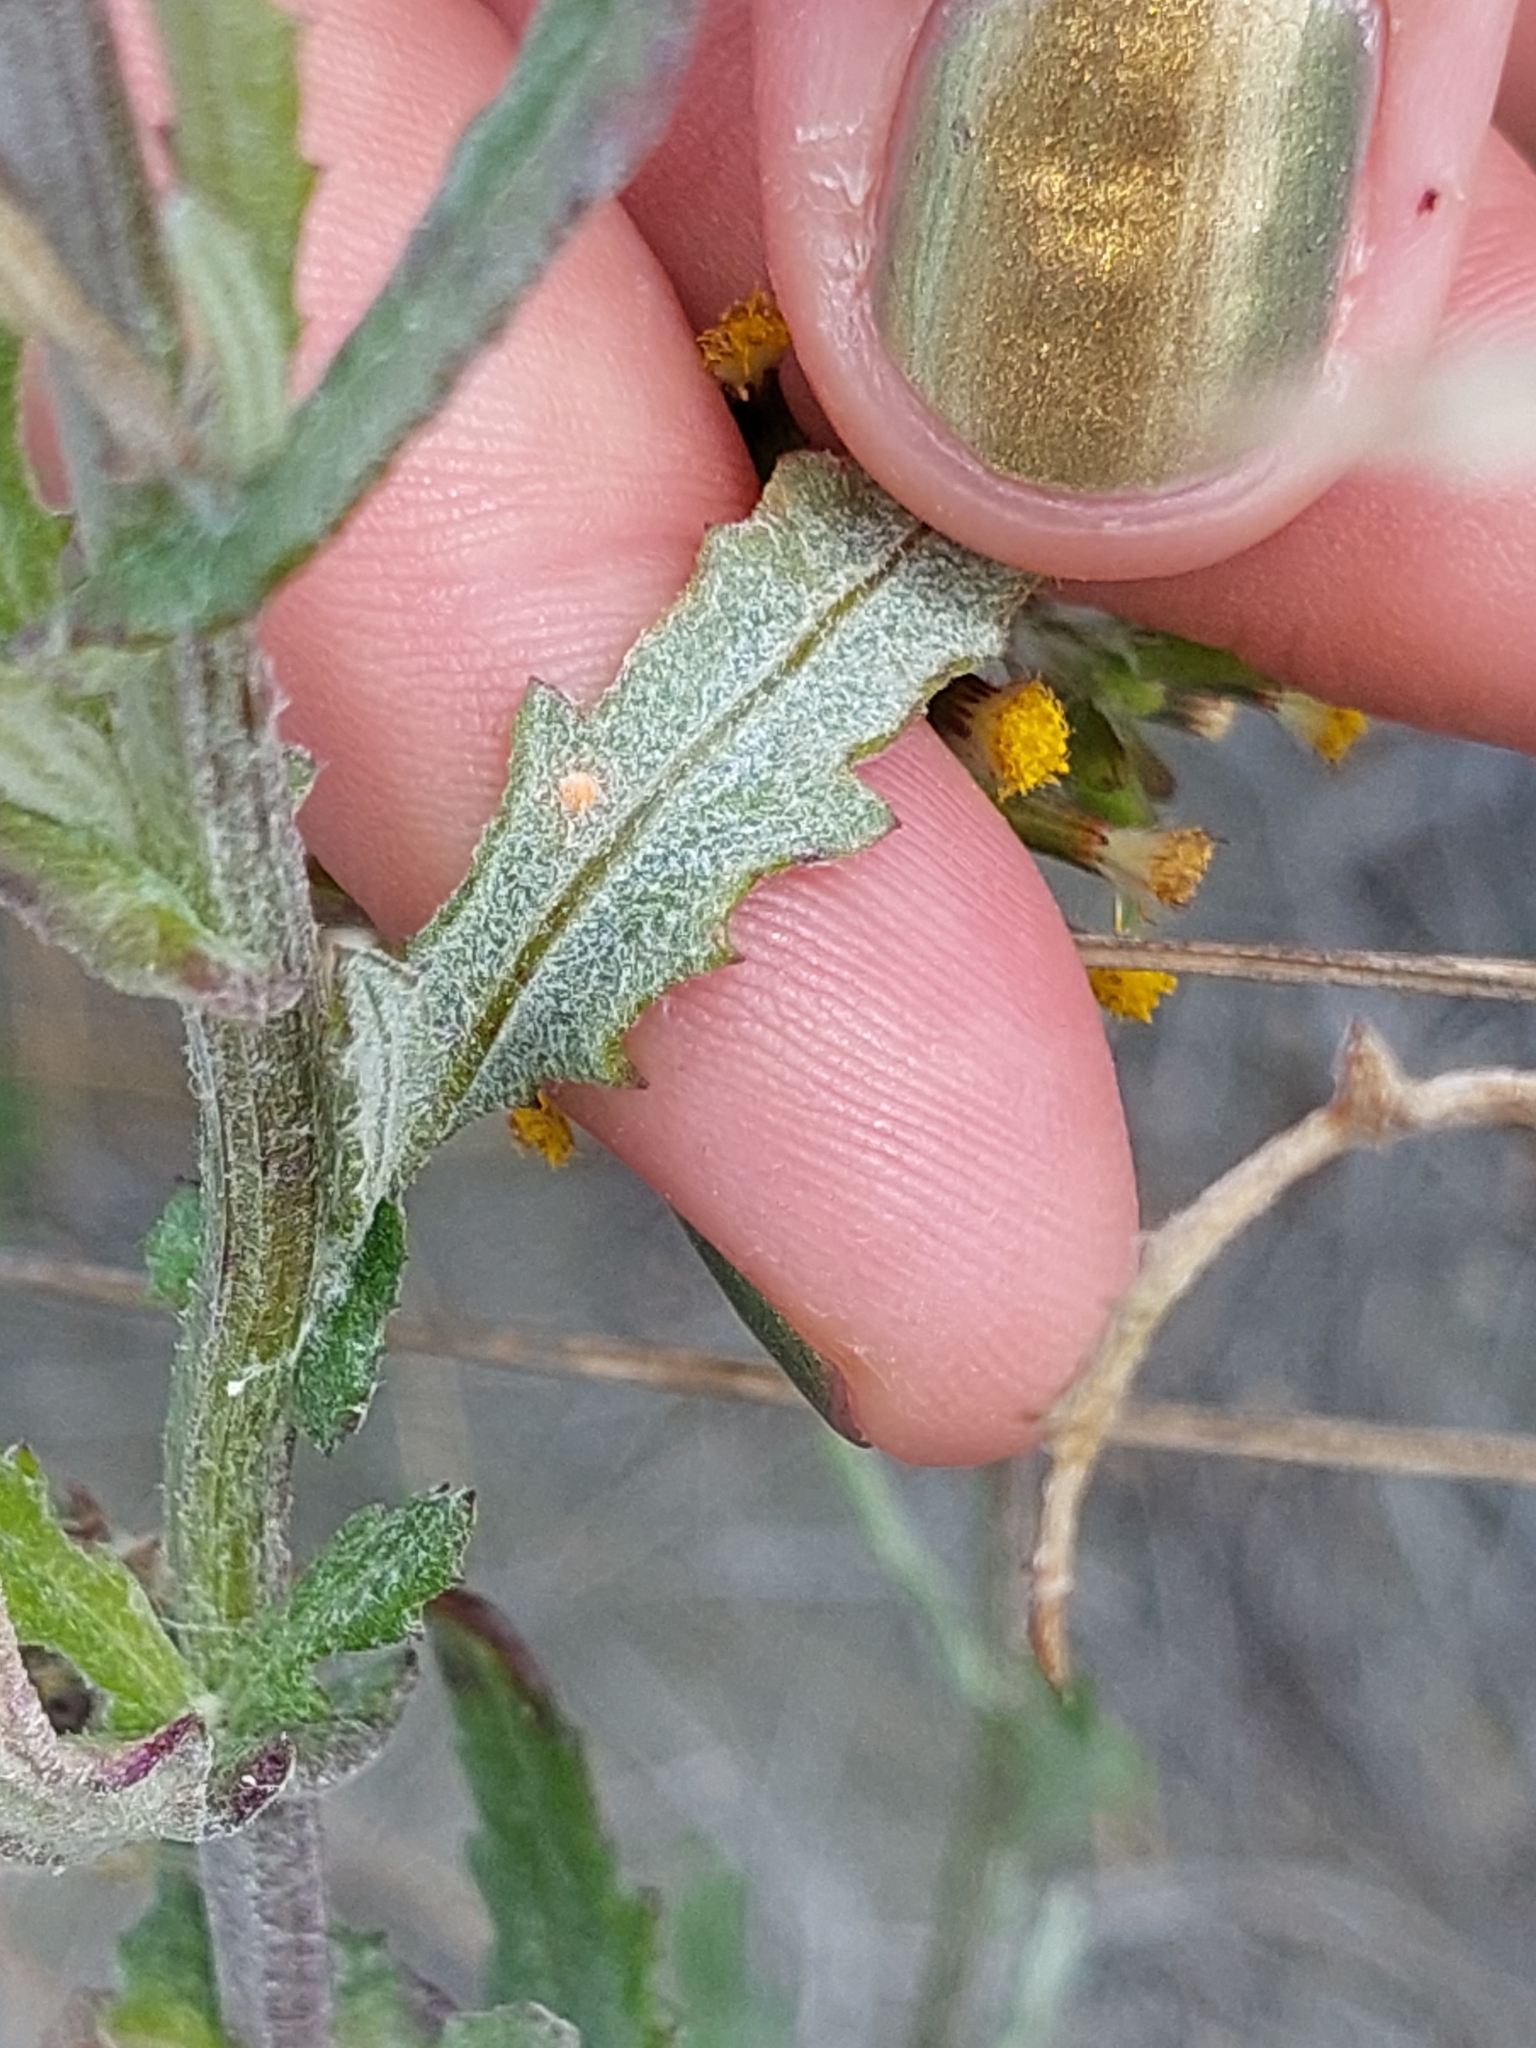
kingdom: Fungi
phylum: Basidiomycota
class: Pucciniomycetes
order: Pucciniales
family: Pucciniaceae
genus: Puccinia
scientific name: Puccinia lagenophorae
